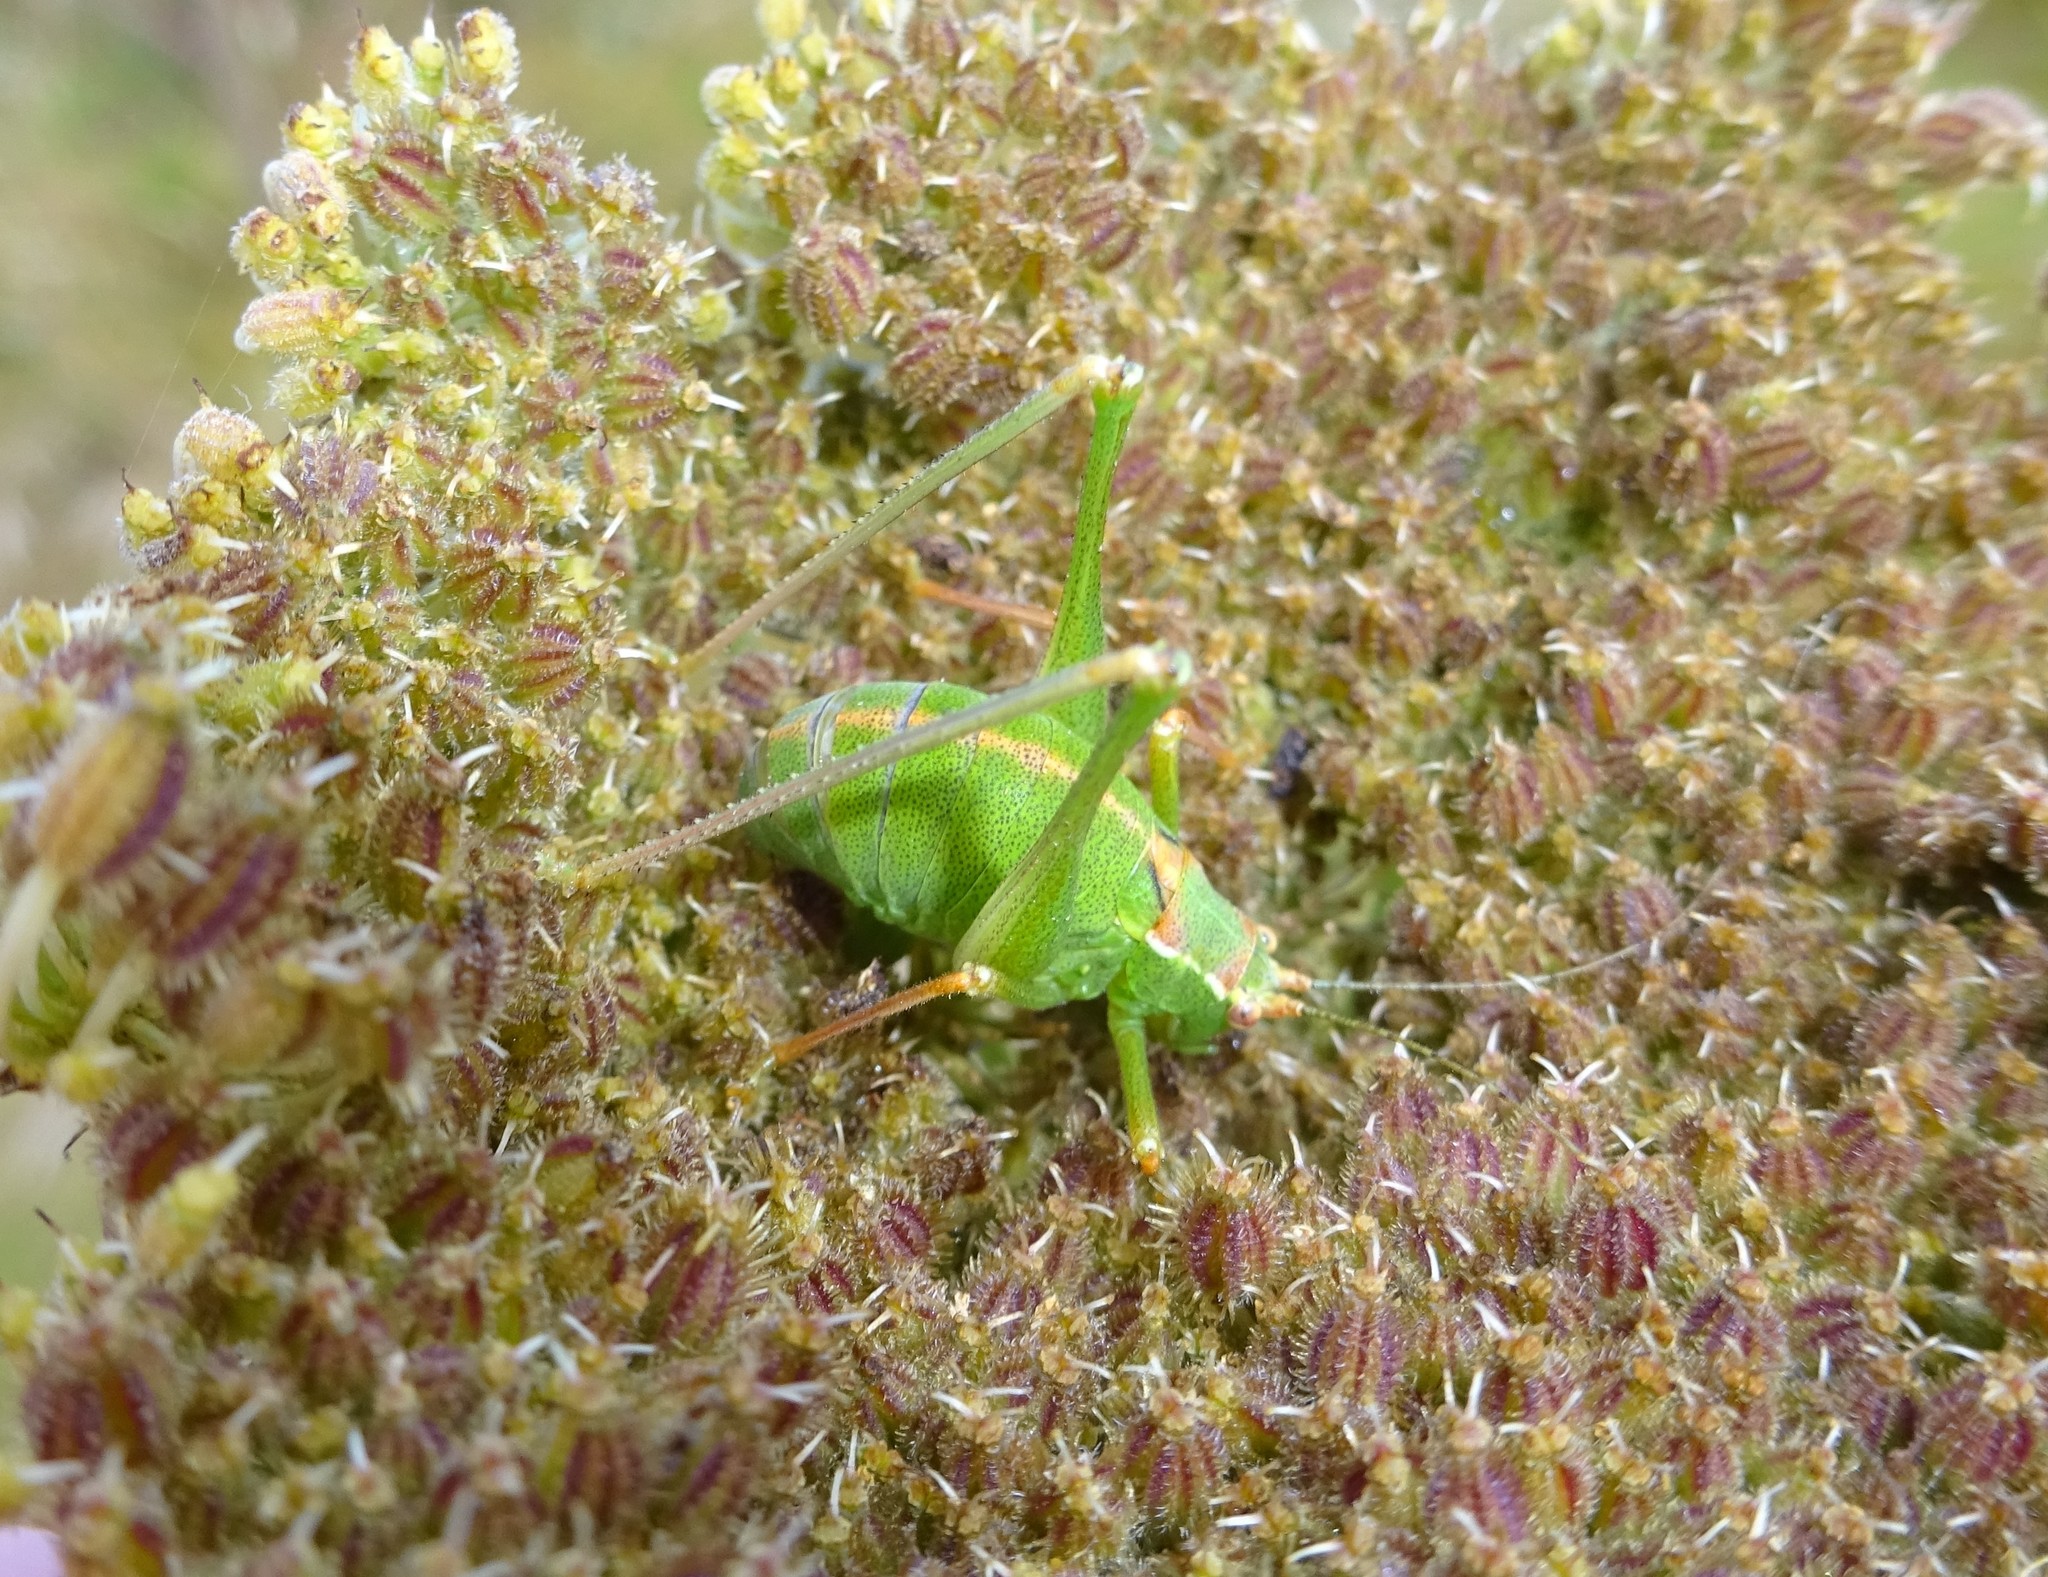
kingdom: Animalia
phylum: Arthropoda
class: Insecta
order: Orthoptera
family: Tettigoniidae
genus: Leptophyes
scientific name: Leptophyes punctatissima
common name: Speckled bush-cricket
